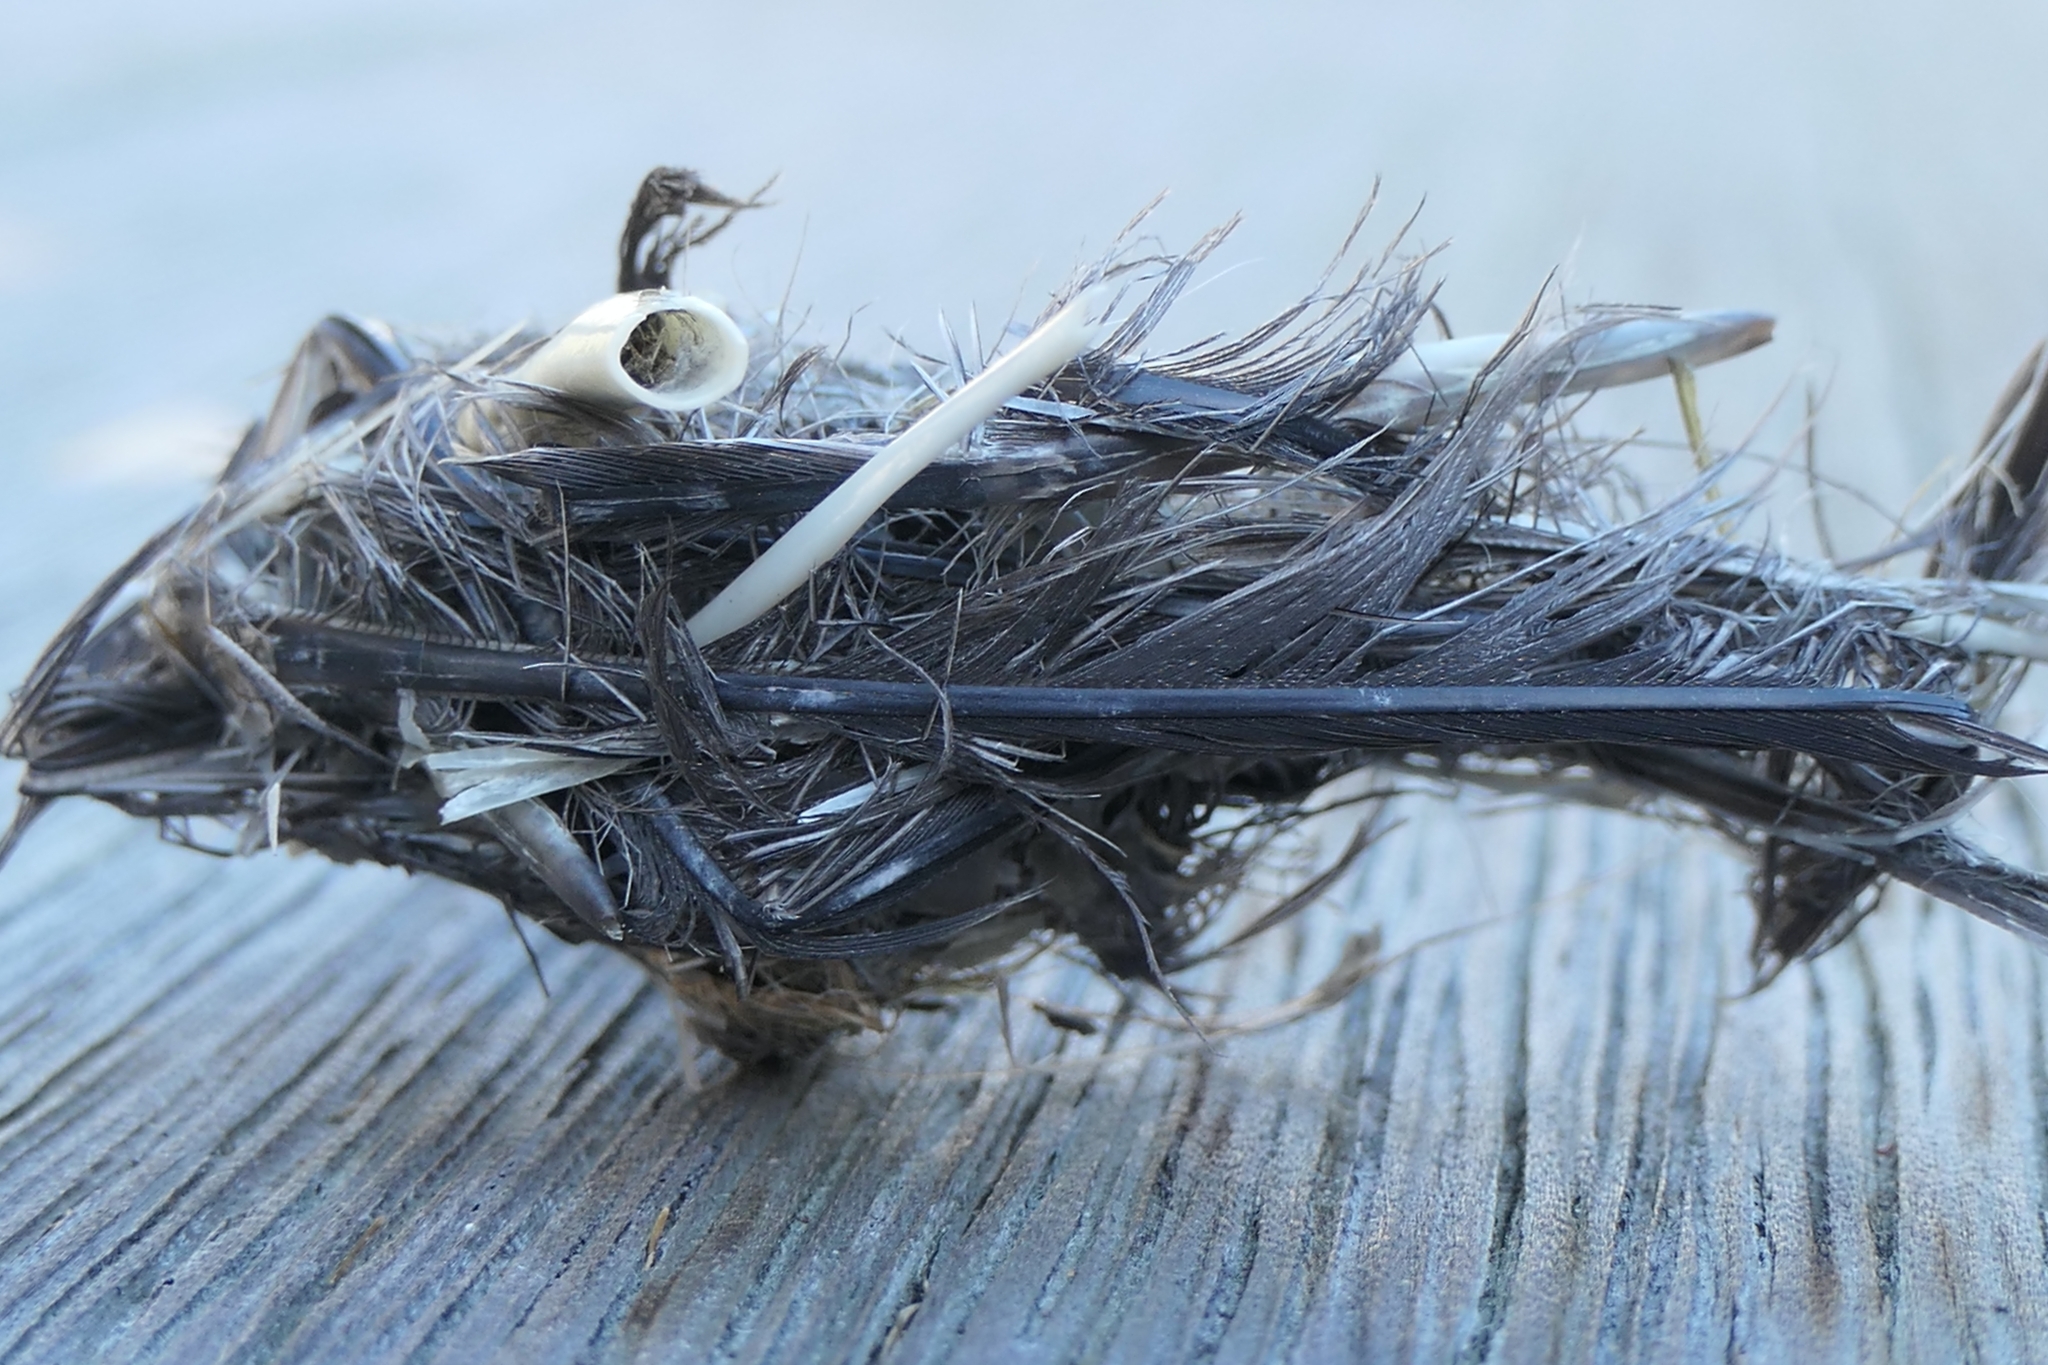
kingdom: Animalia
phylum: Chordata
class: Aves
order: Strigiformes
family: Strigidae
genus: Athene
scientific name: Athene noctua
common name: Little owl
